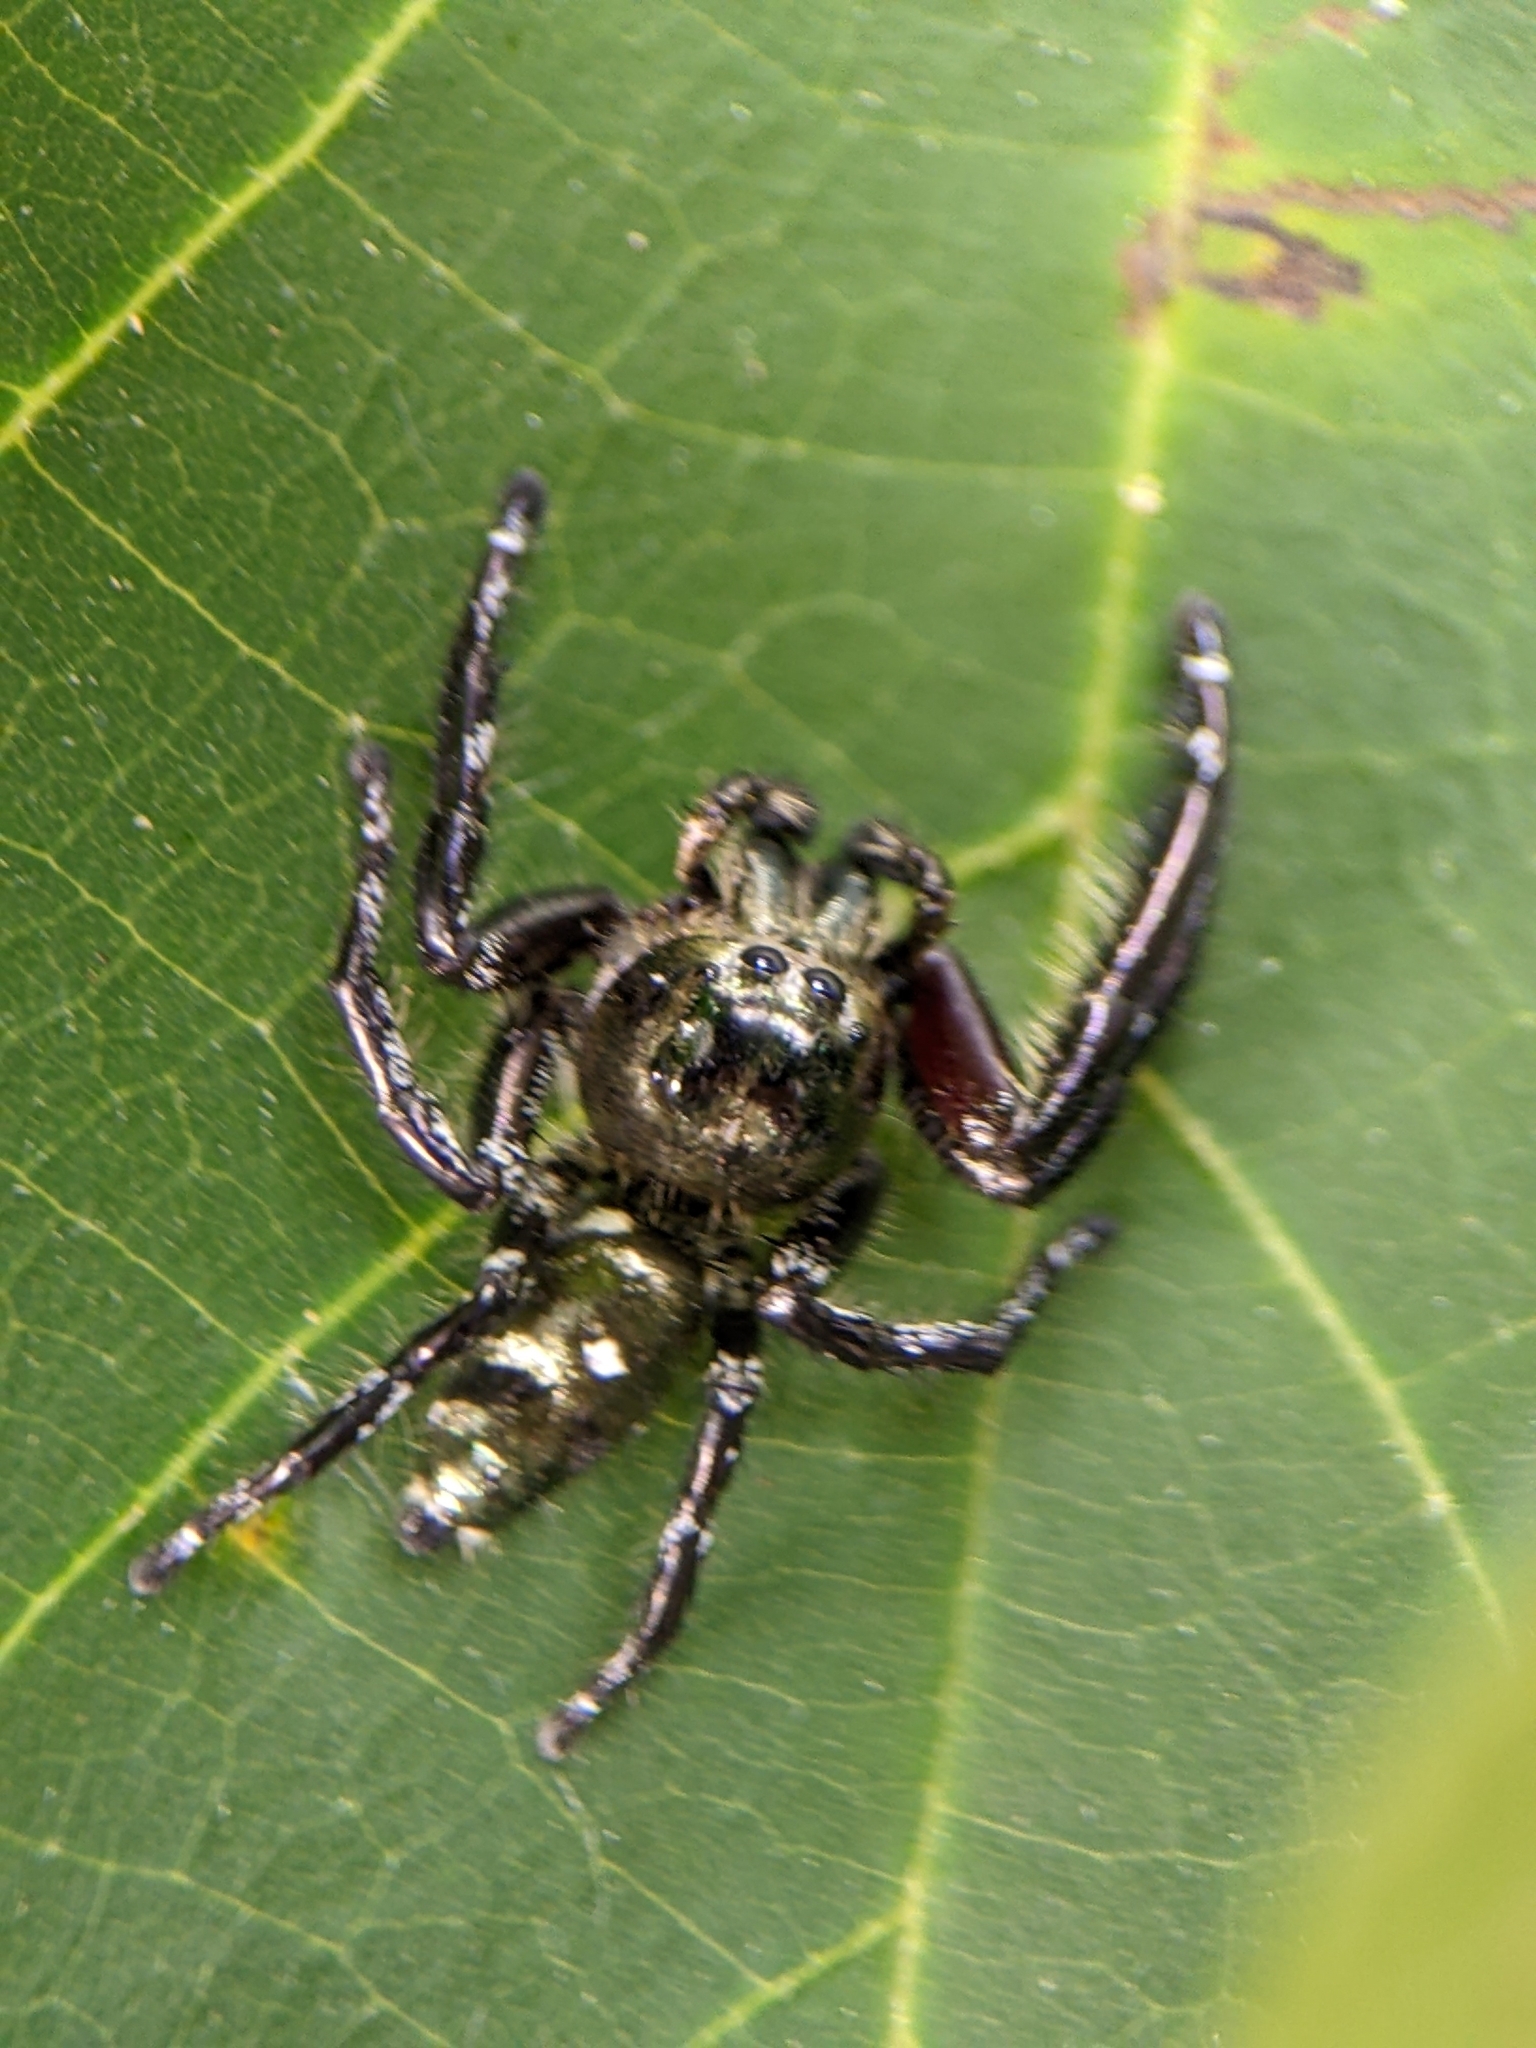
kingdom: Animalia
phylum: Arthropoda
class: Arachnida
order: Araneae
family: Salticidae
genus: Hyllus
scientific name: Hyllus diardi
